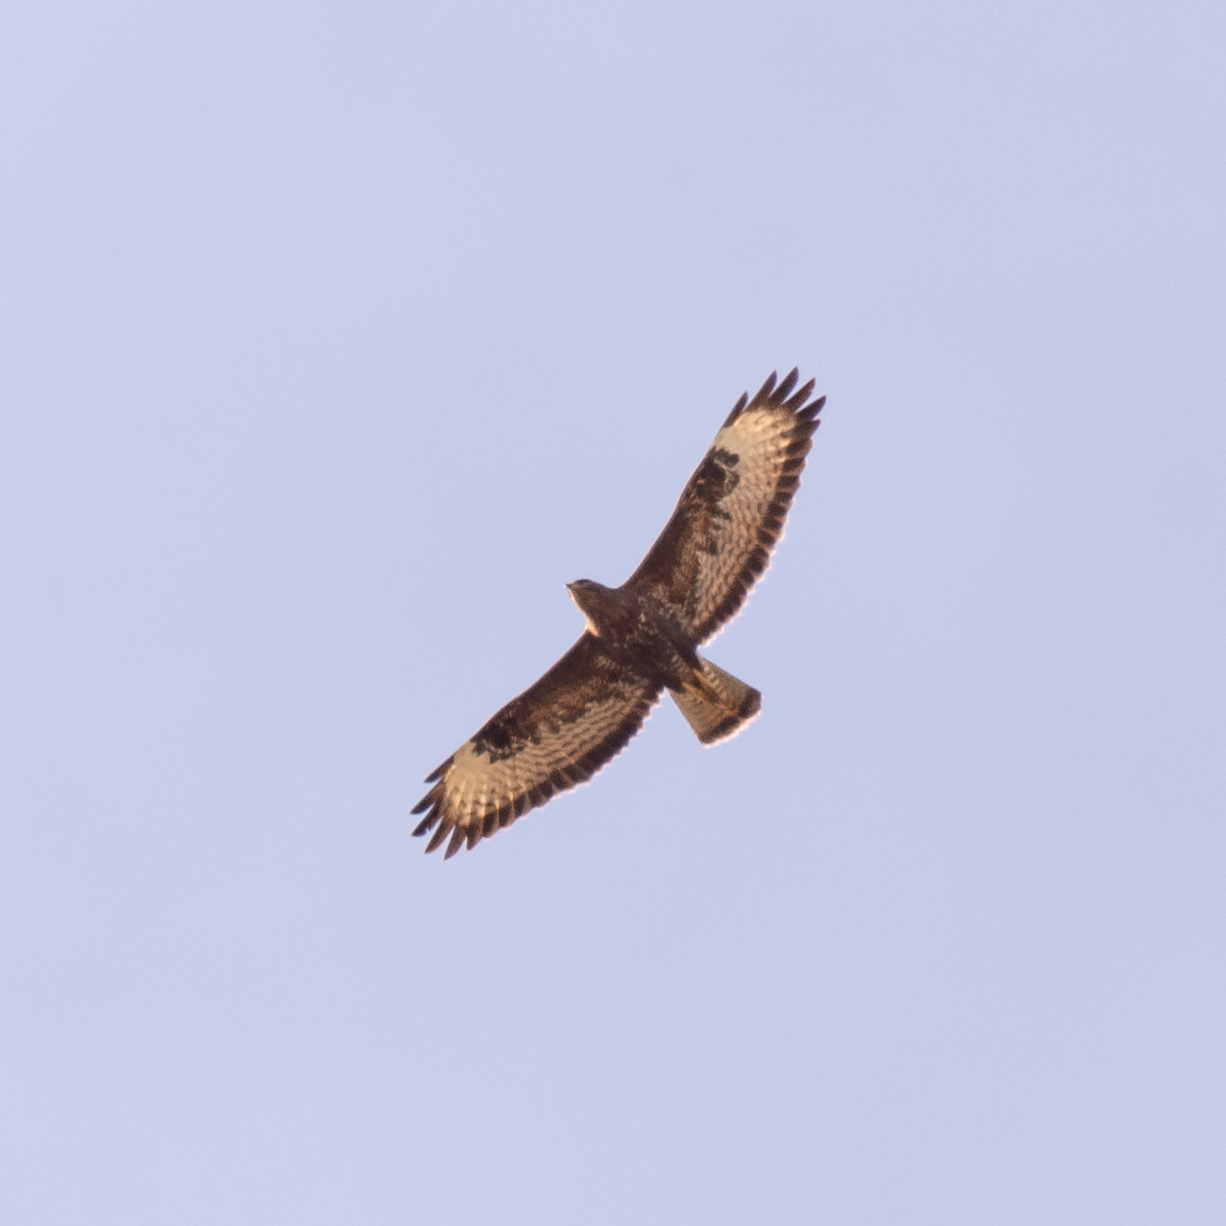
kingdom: Animalia
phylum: Chordata
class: Aves
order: Accipitriformes
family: Accipitridae
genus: Buteo
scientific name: Buteo buteo
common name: Common buzzard
